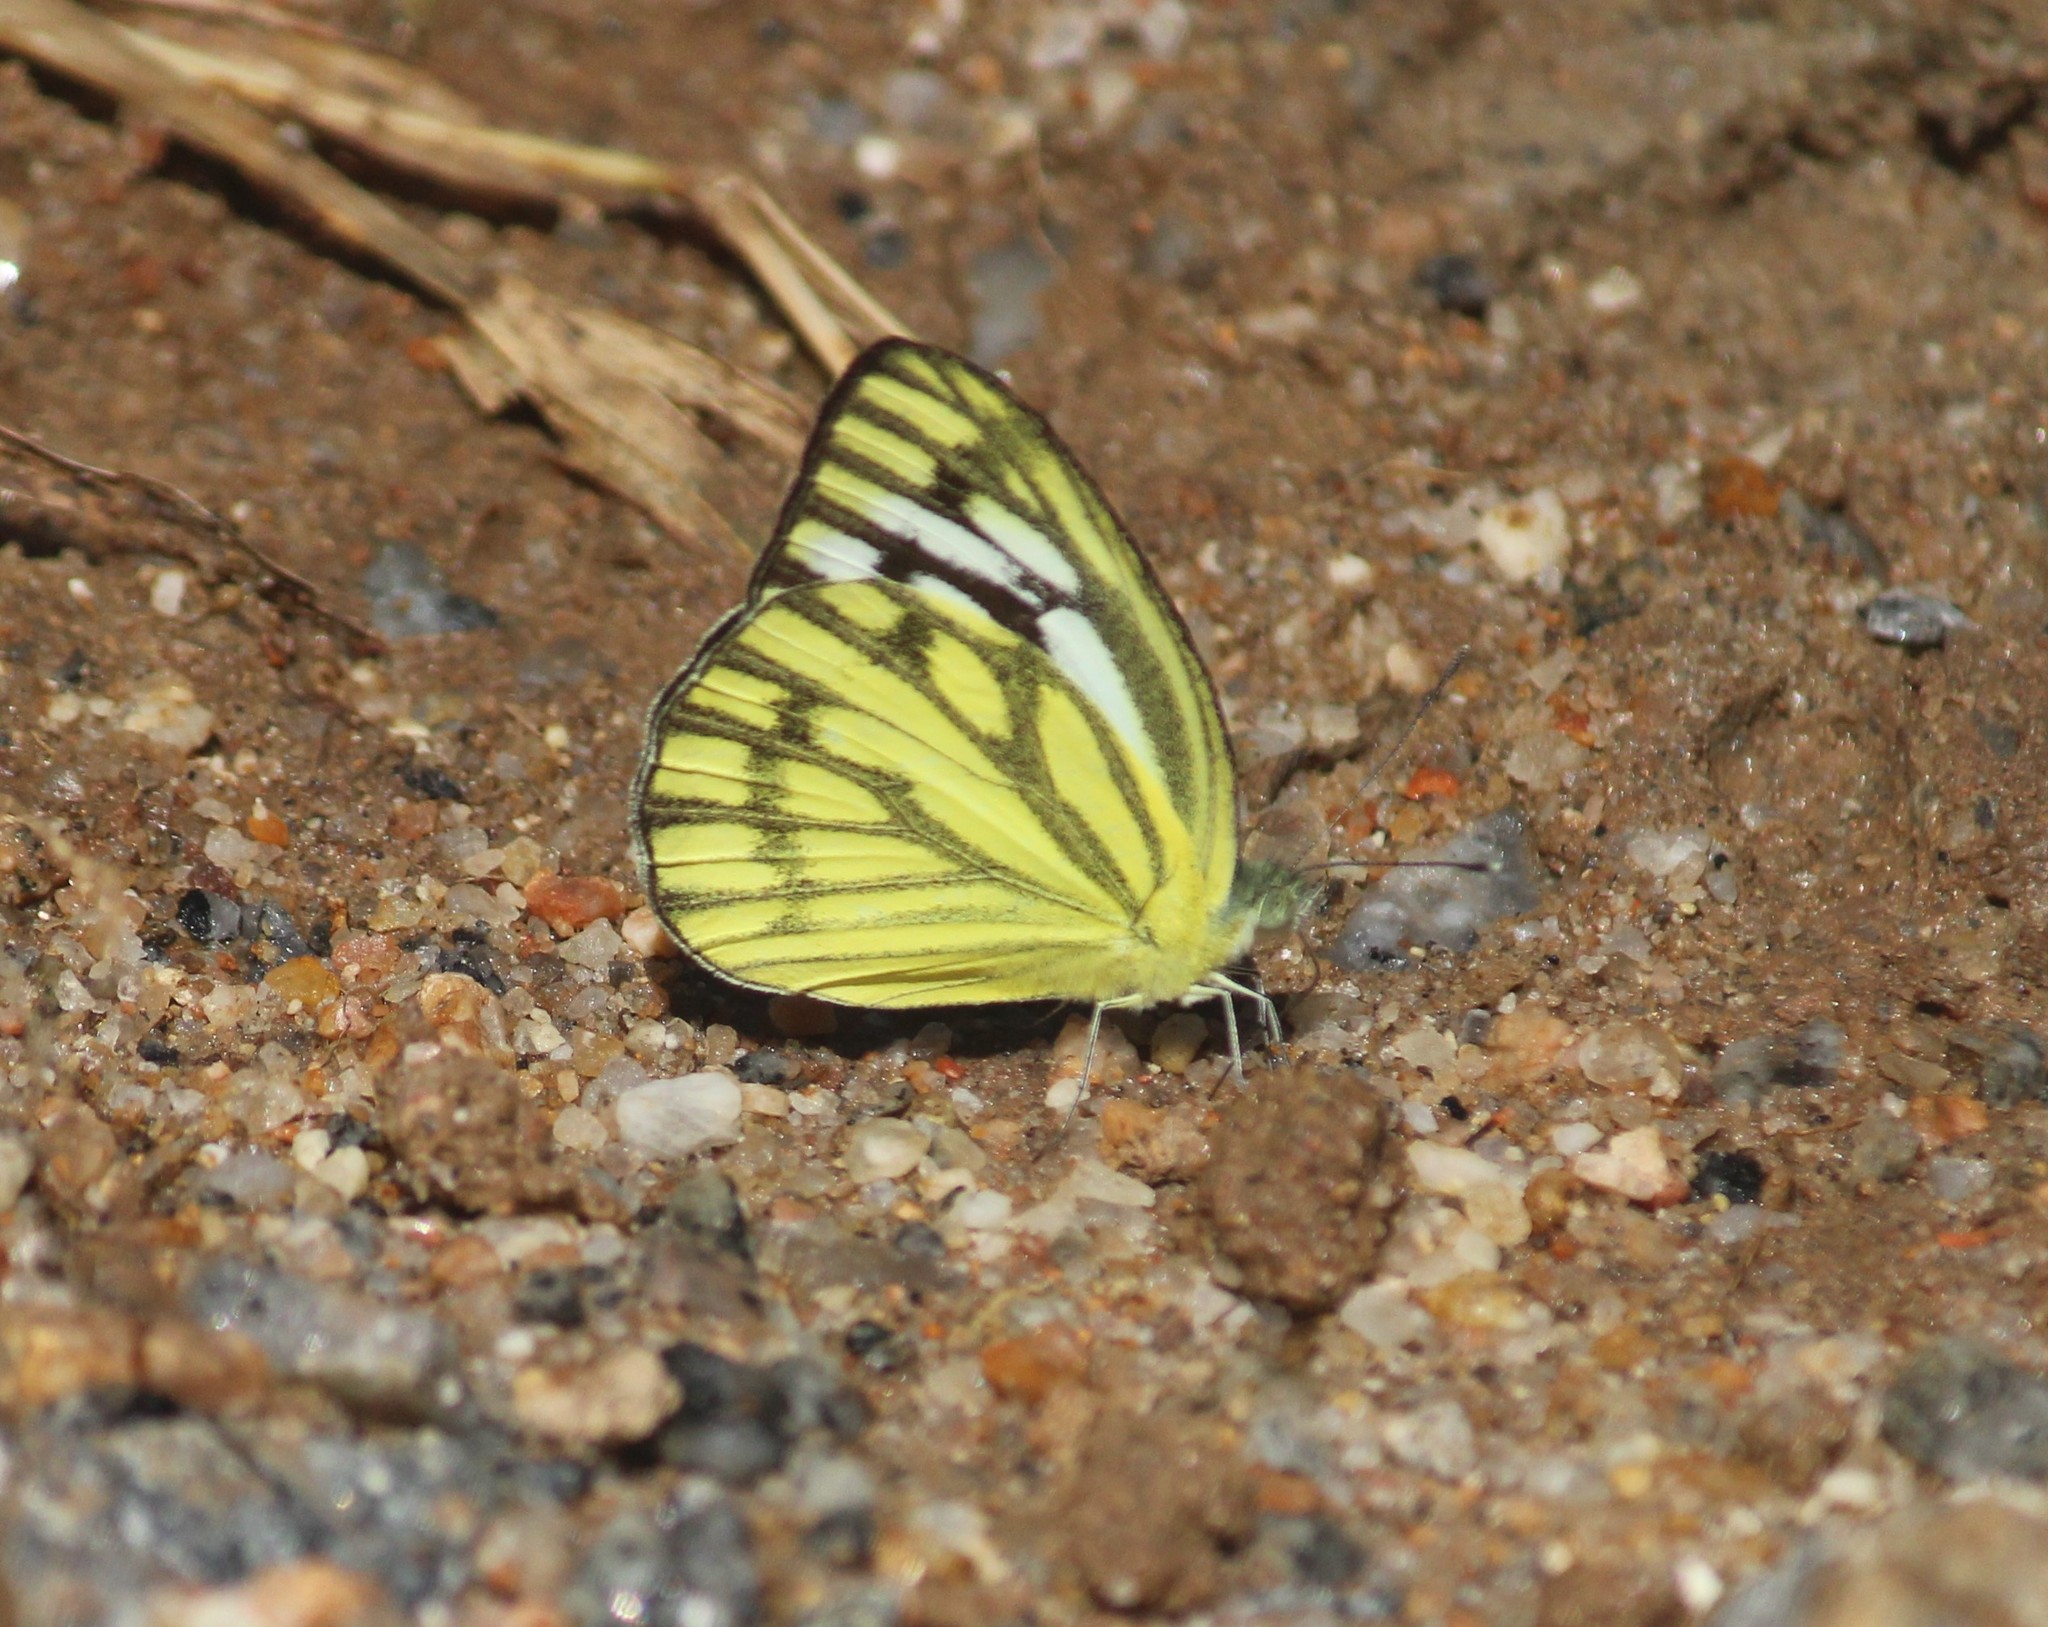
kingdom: Animalia
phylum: Arthropoda
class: Insecta
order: Lepidoptera
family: Pieridae
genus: Cepora
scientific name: Cepora nerissa
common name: Common gull
